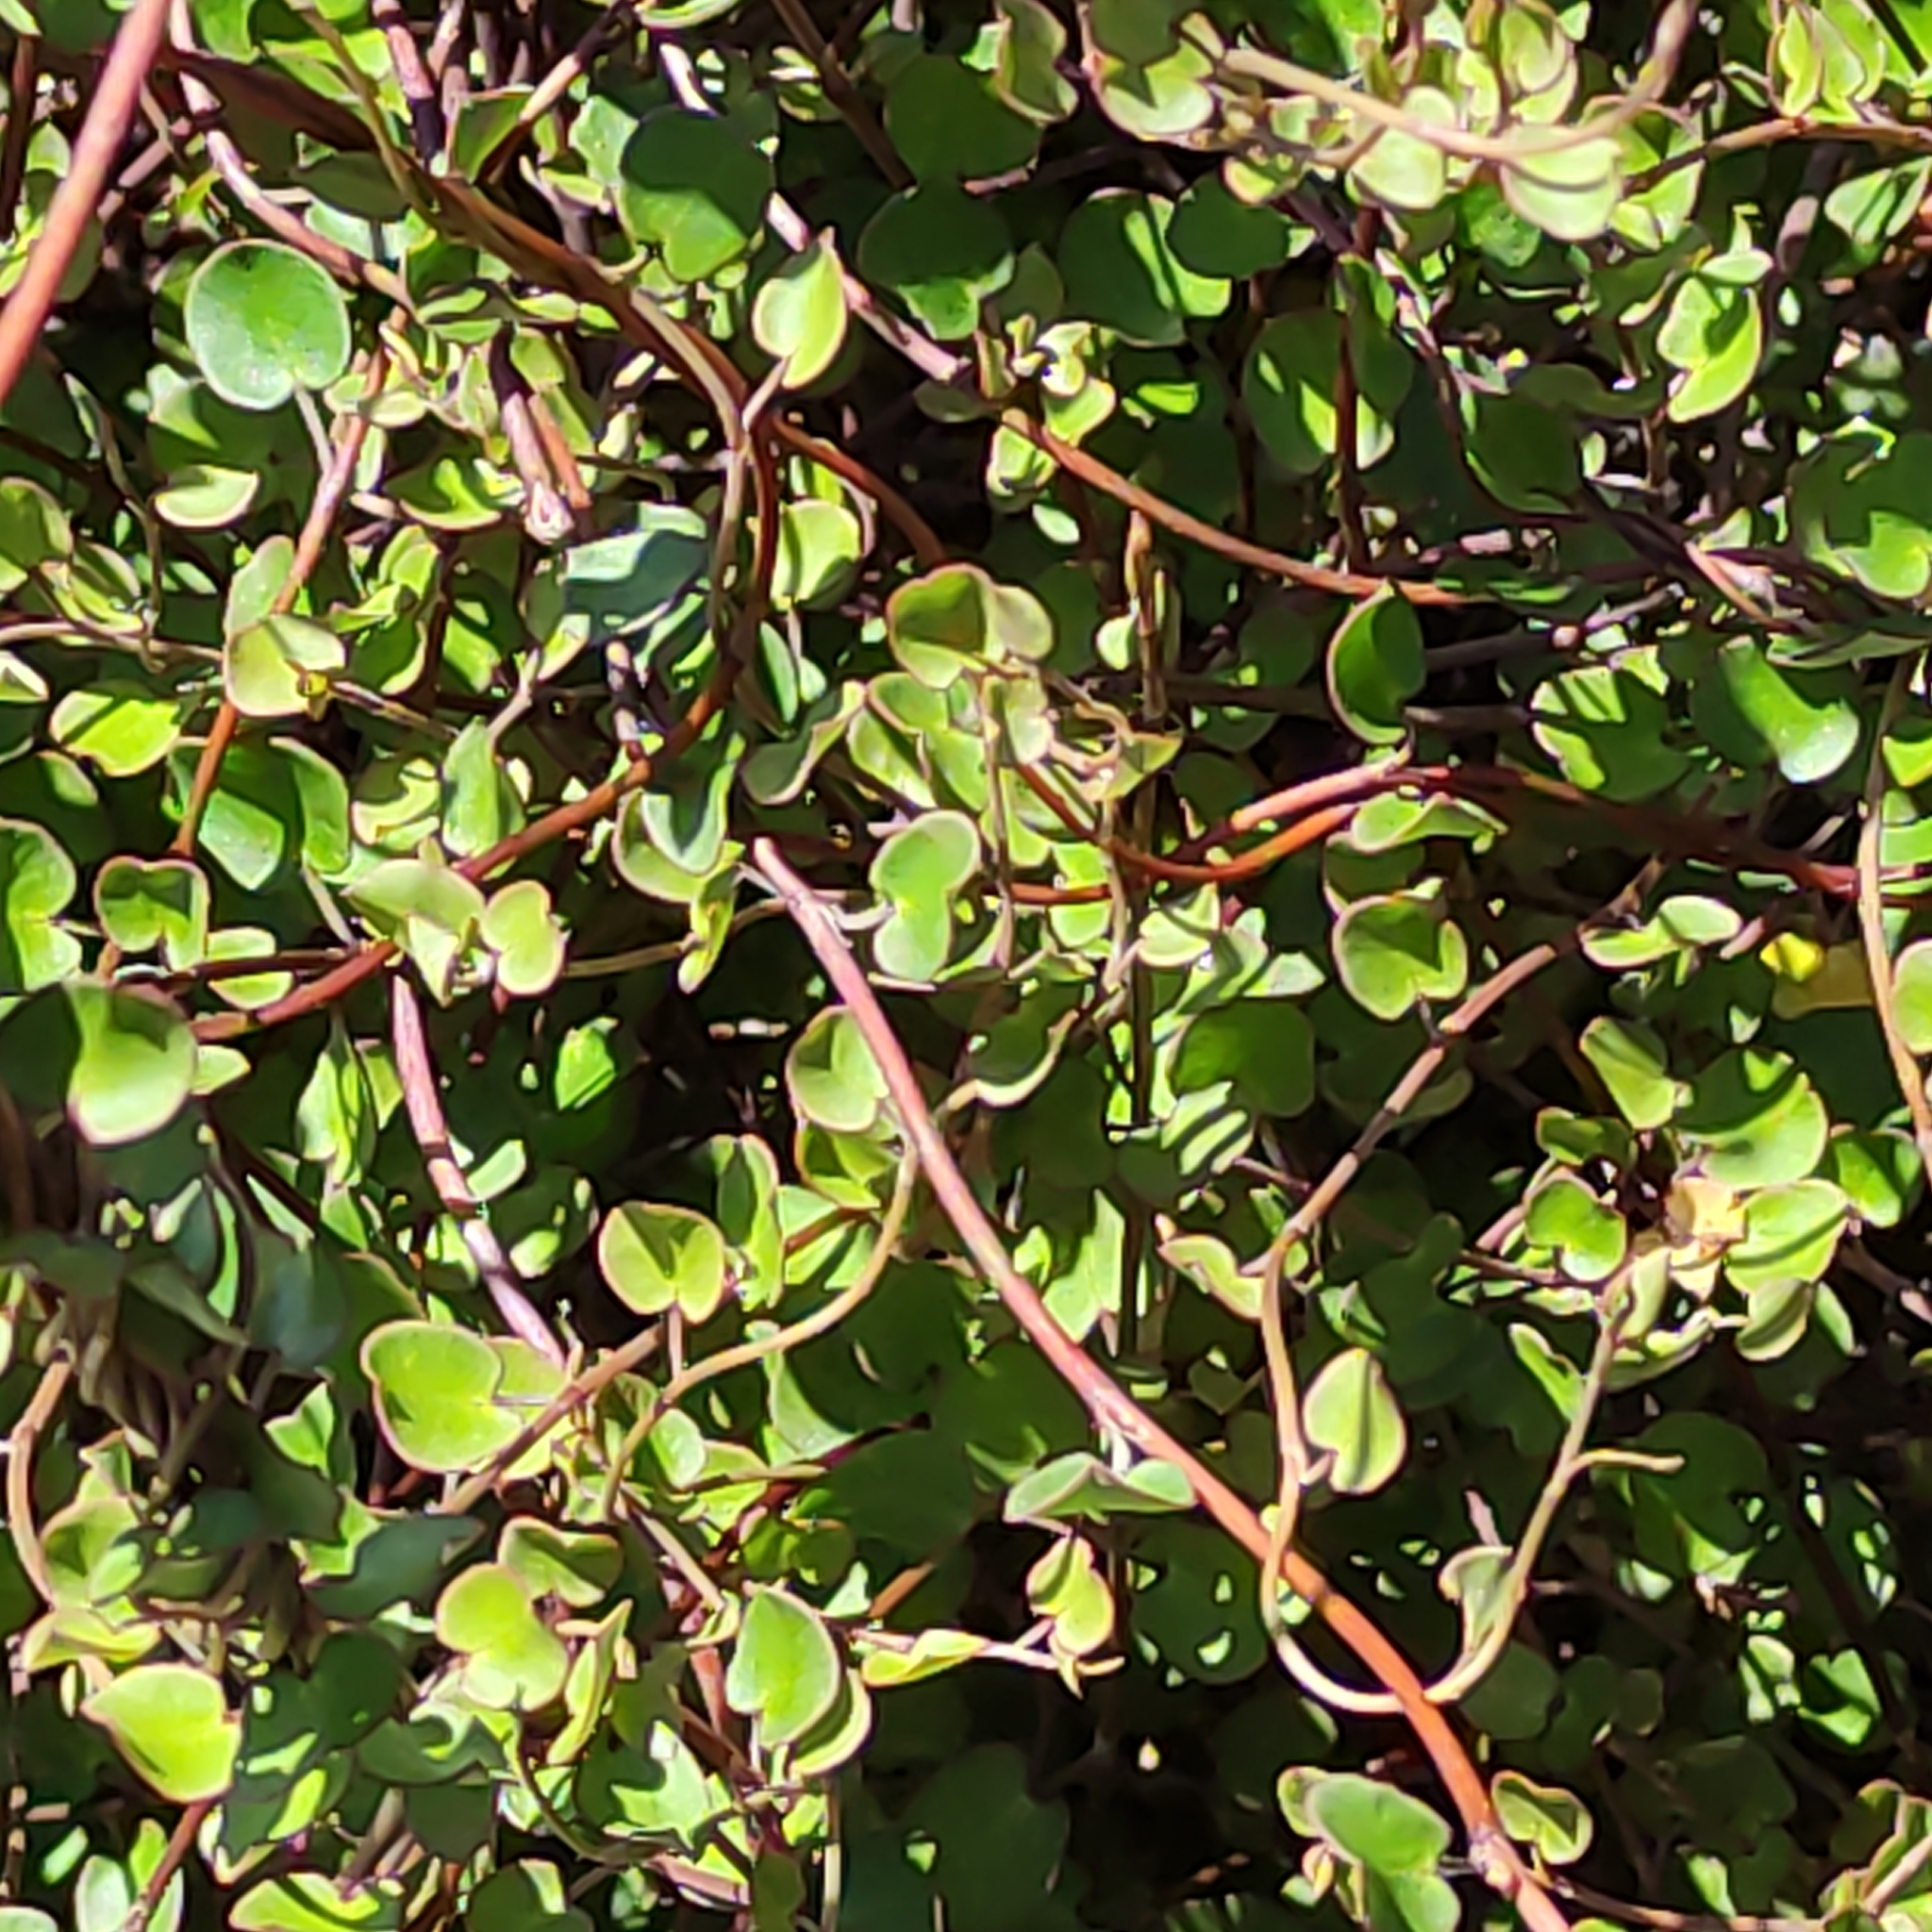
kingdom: Plantae
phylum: Tracheophyta
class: Magnoliopsida
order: Caryophyllales
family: Polygonaceae
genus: Muehlenbeckia
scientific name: Muehlenbeckia complexa
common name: Wireplant
